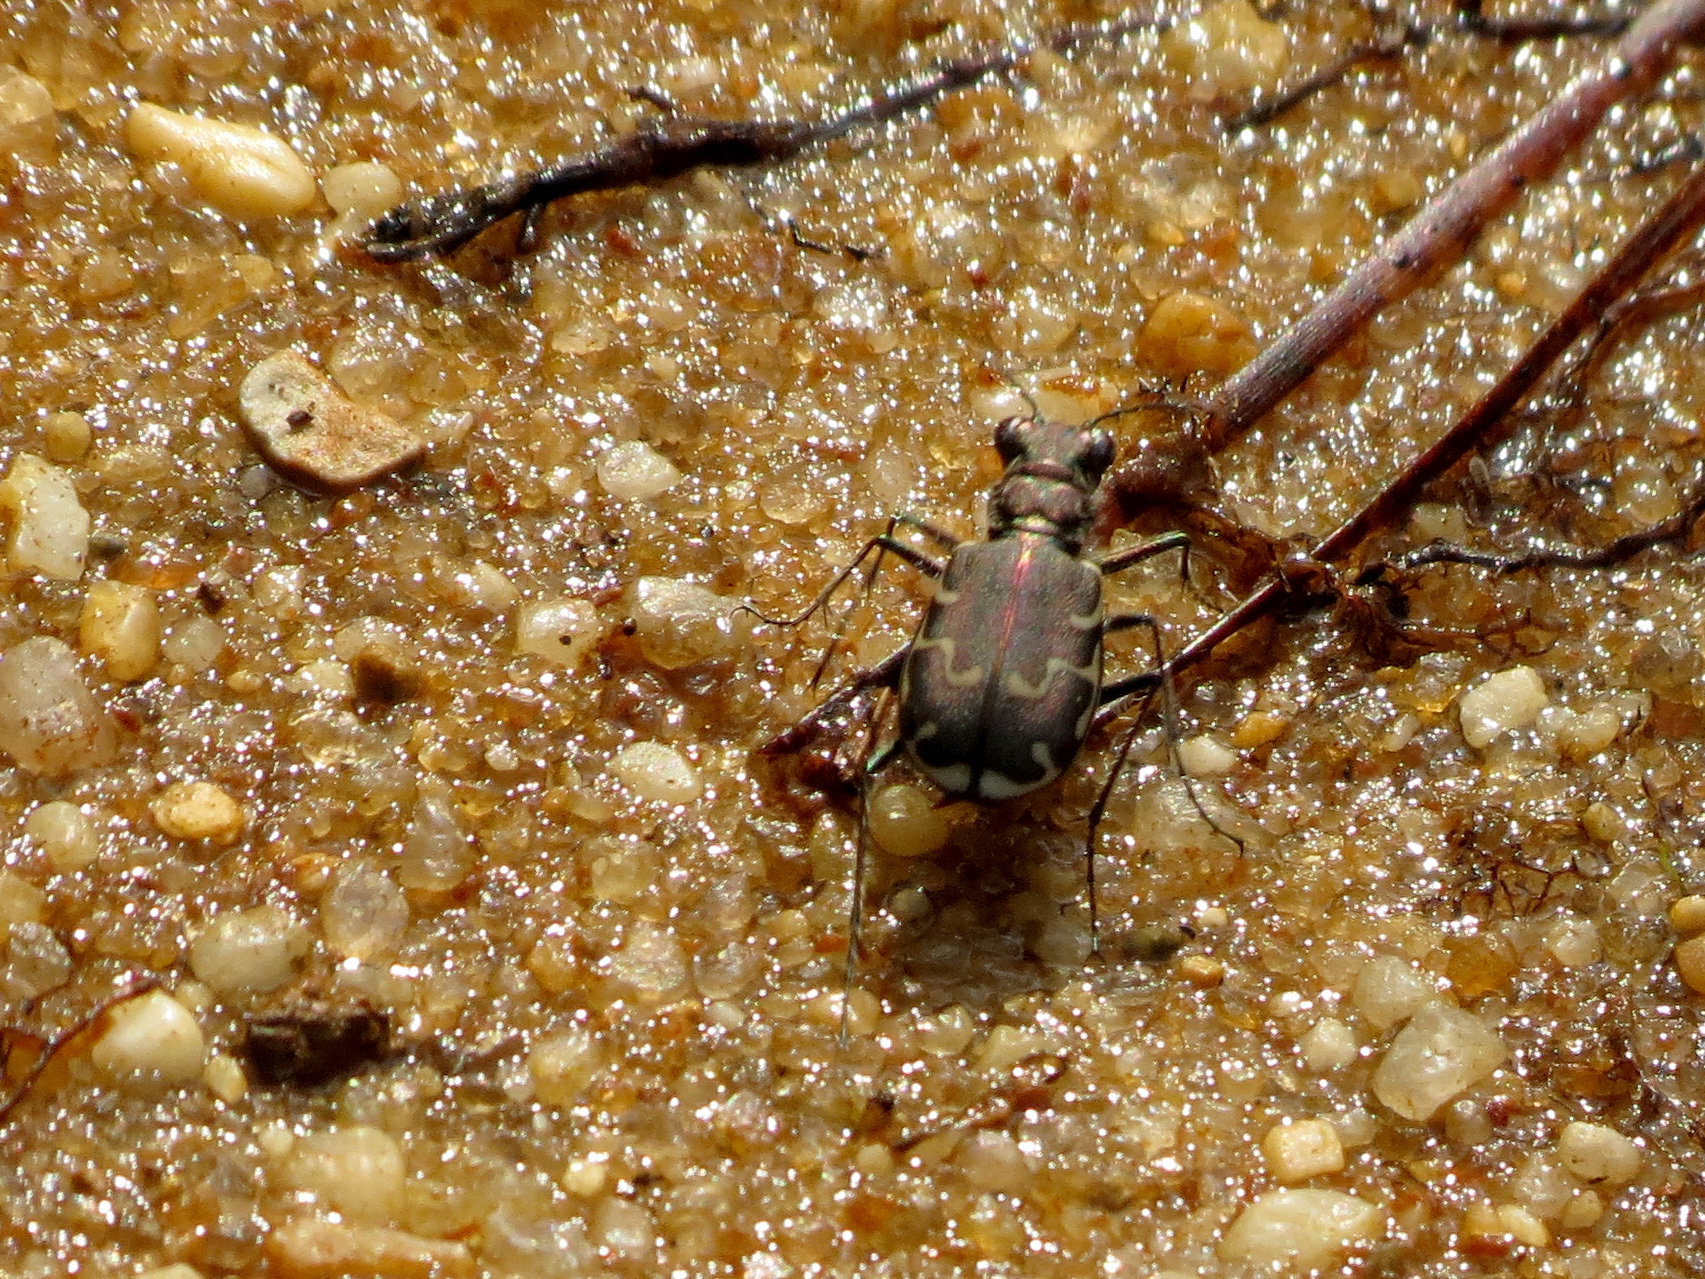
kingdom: Animalia
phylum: Arthropoda
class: Insecta
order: Coleoptera
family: Carabidae
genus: Cicindela
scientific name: Cicindela repanda
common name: Bronzed tiger beetle
